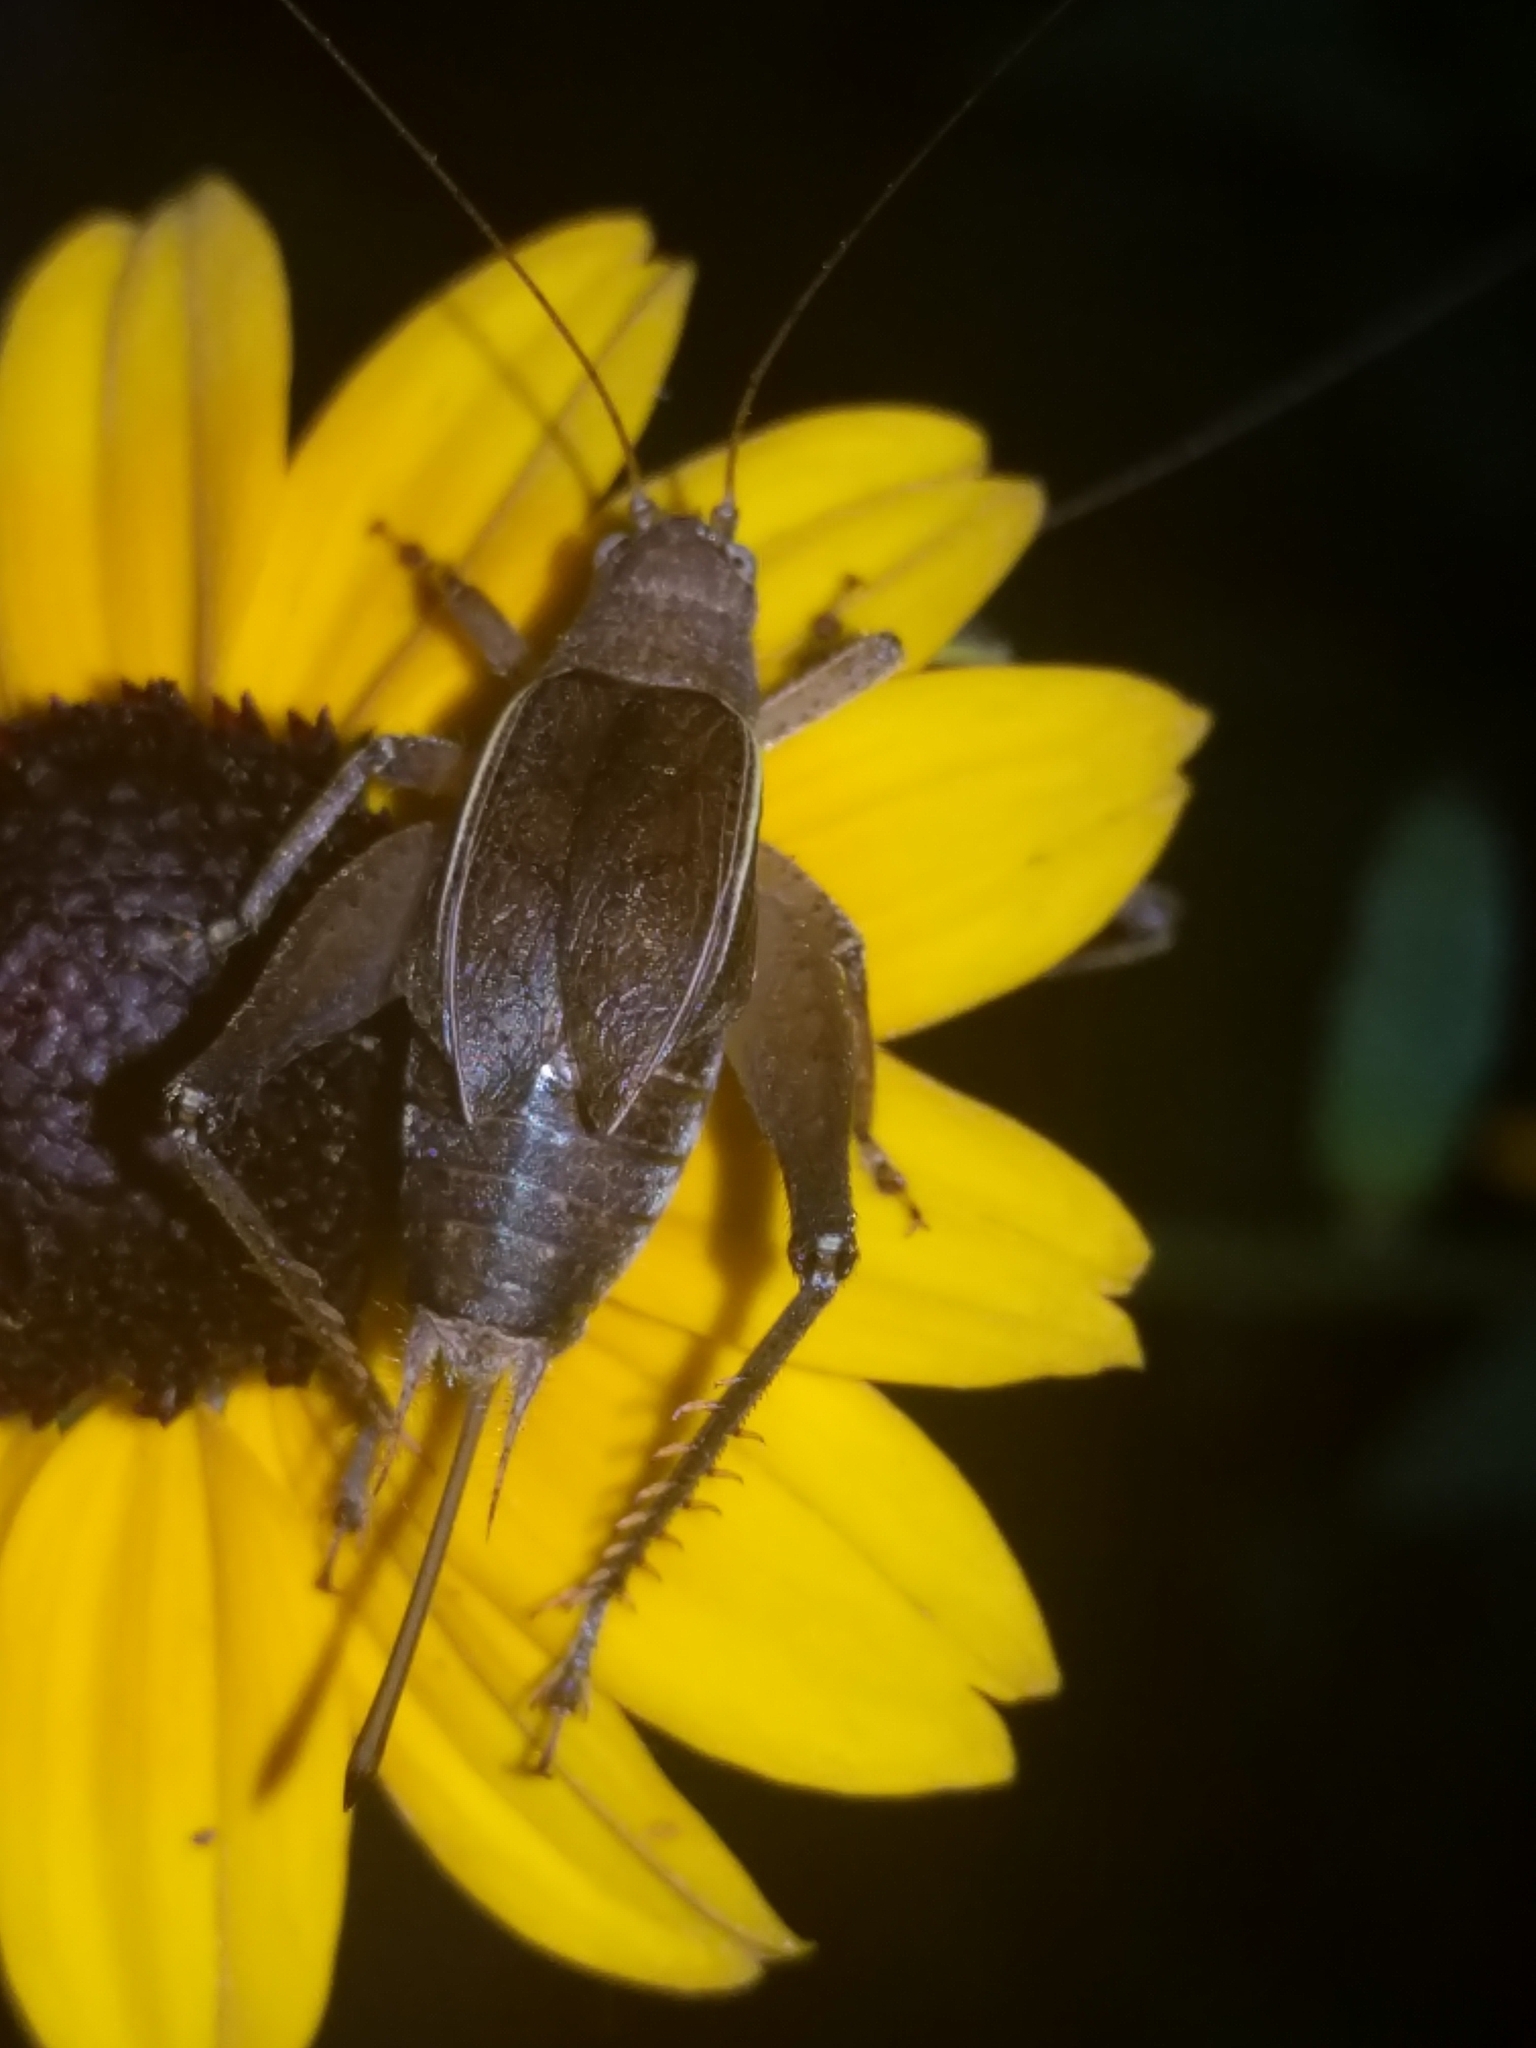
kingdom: Animalia
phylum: Arthropoda
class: Insecta
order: Orthoptera
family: Gryllidae
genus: Hapithus
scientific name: Hapithus agitator
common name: Restless bush cricket
